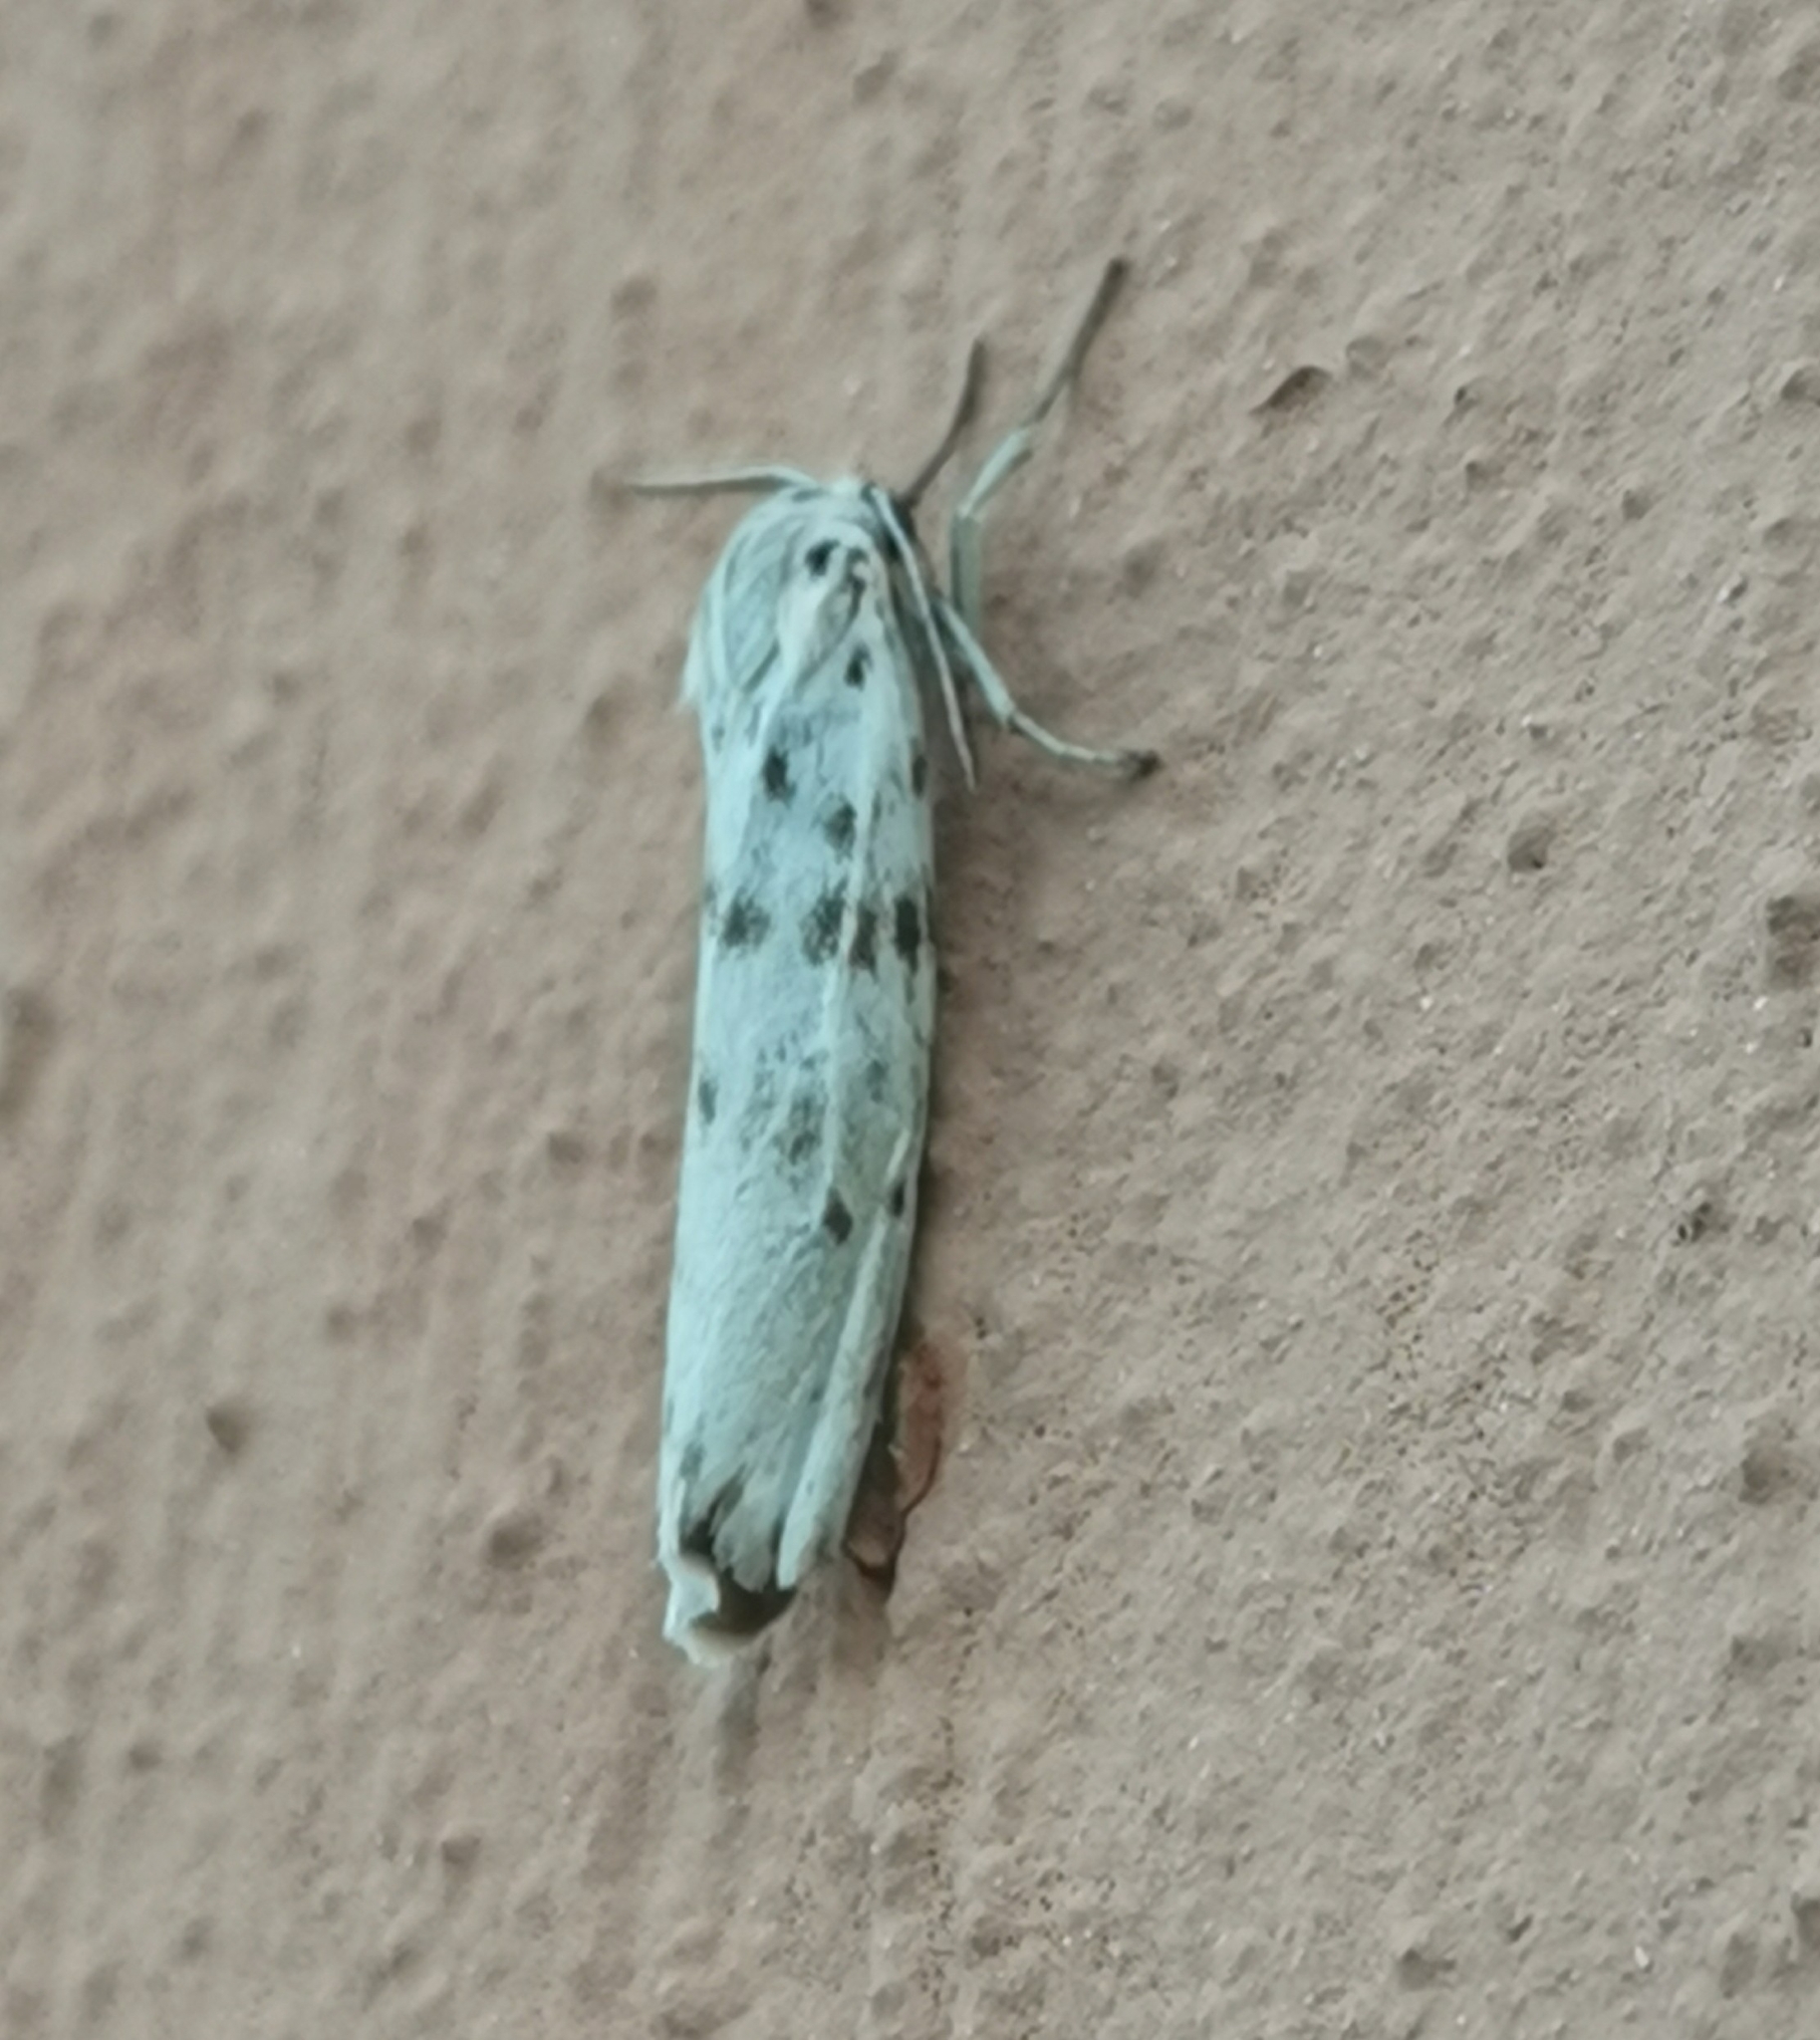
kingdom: Animalia
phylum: Arthropoda
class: Insecta
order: Lepidoptera
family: Erebidae
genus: Coscinia
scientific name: Coscinia cribraria
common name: Speckled footman
